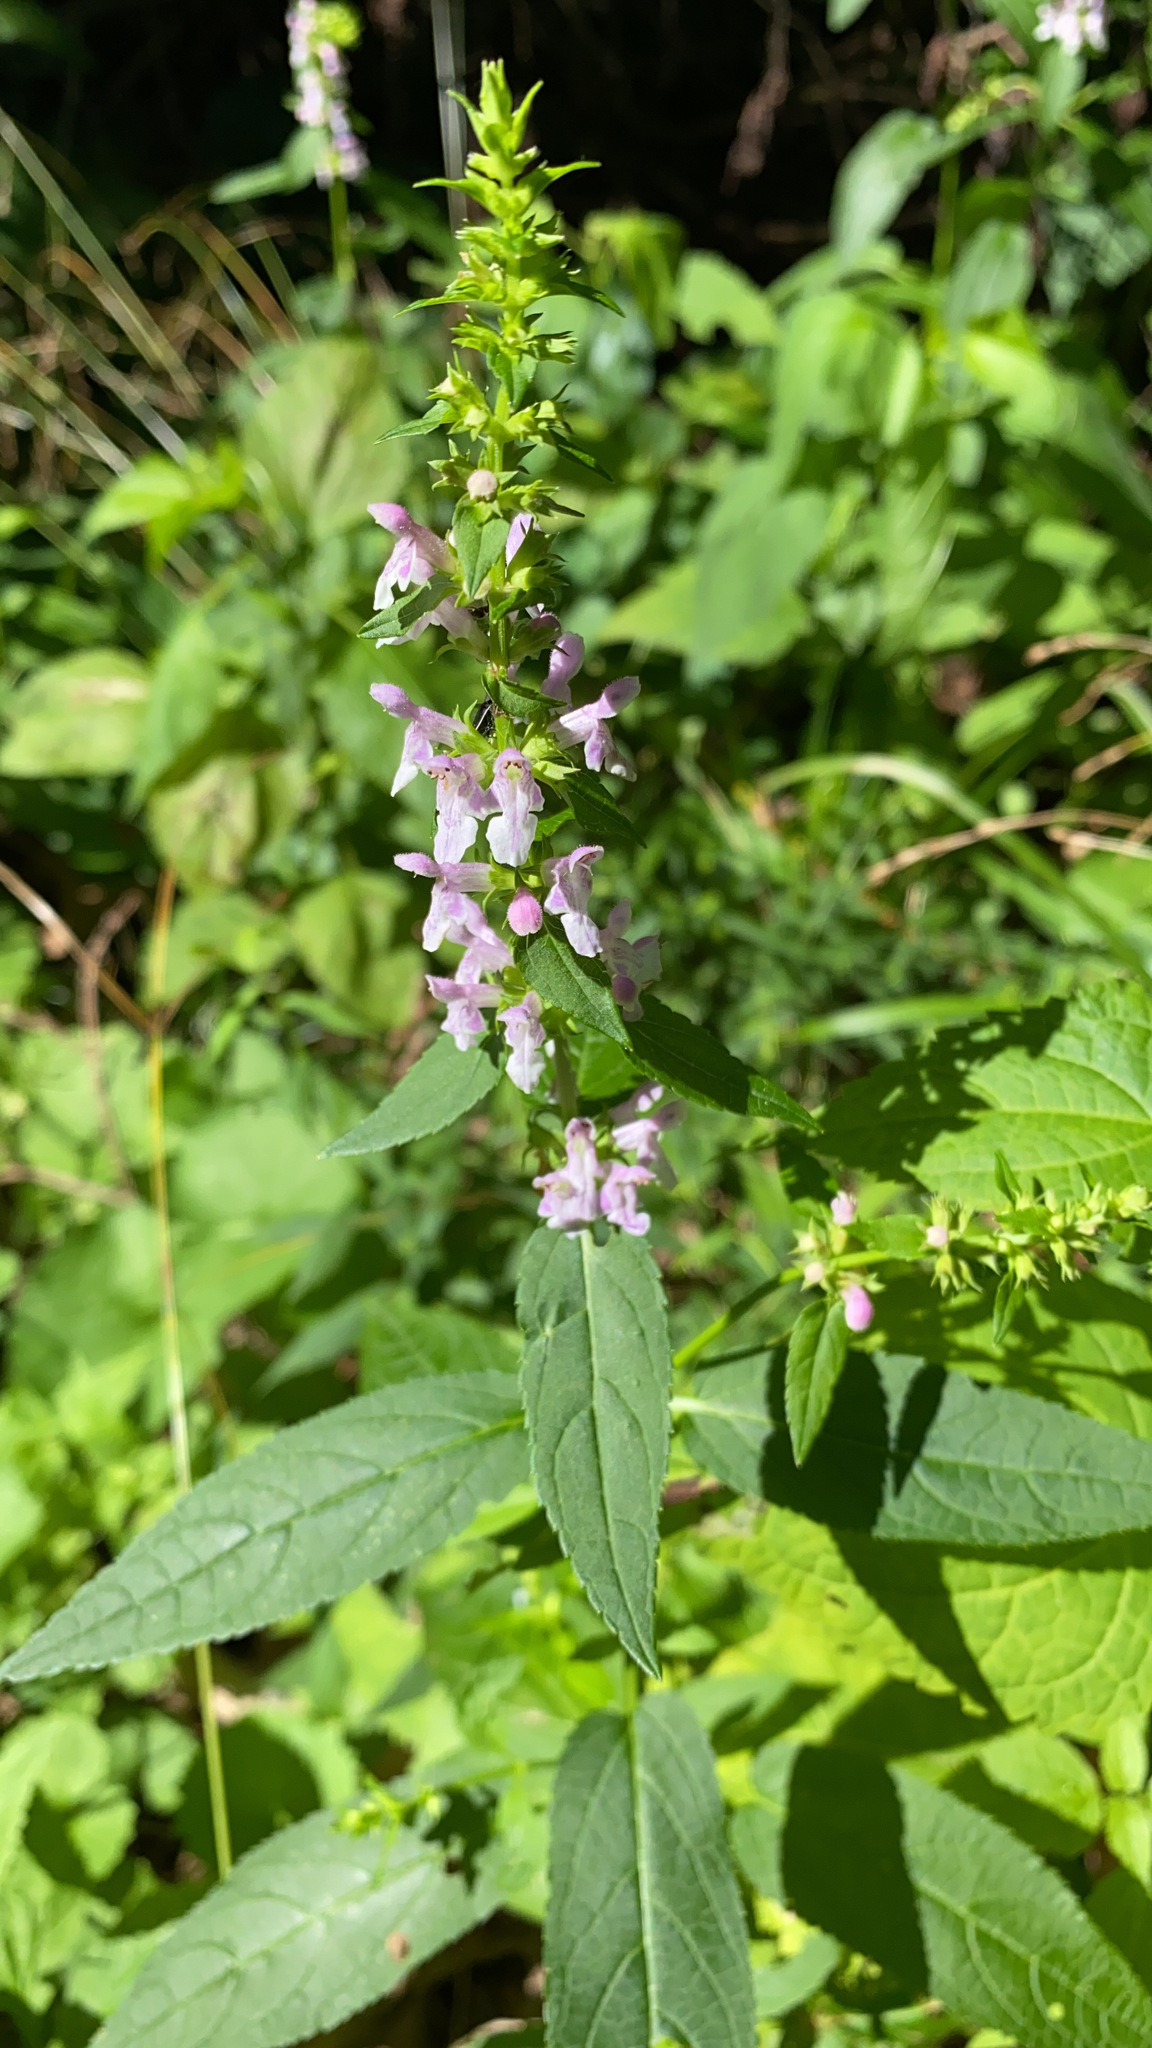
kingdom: Plantae
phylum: Tracheophyta
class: Magnoliopsida
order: Lamiales
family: Lamiaceae
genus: Stachys
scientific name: Stachys tenuifolia
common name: Smooth hedge-nettle
